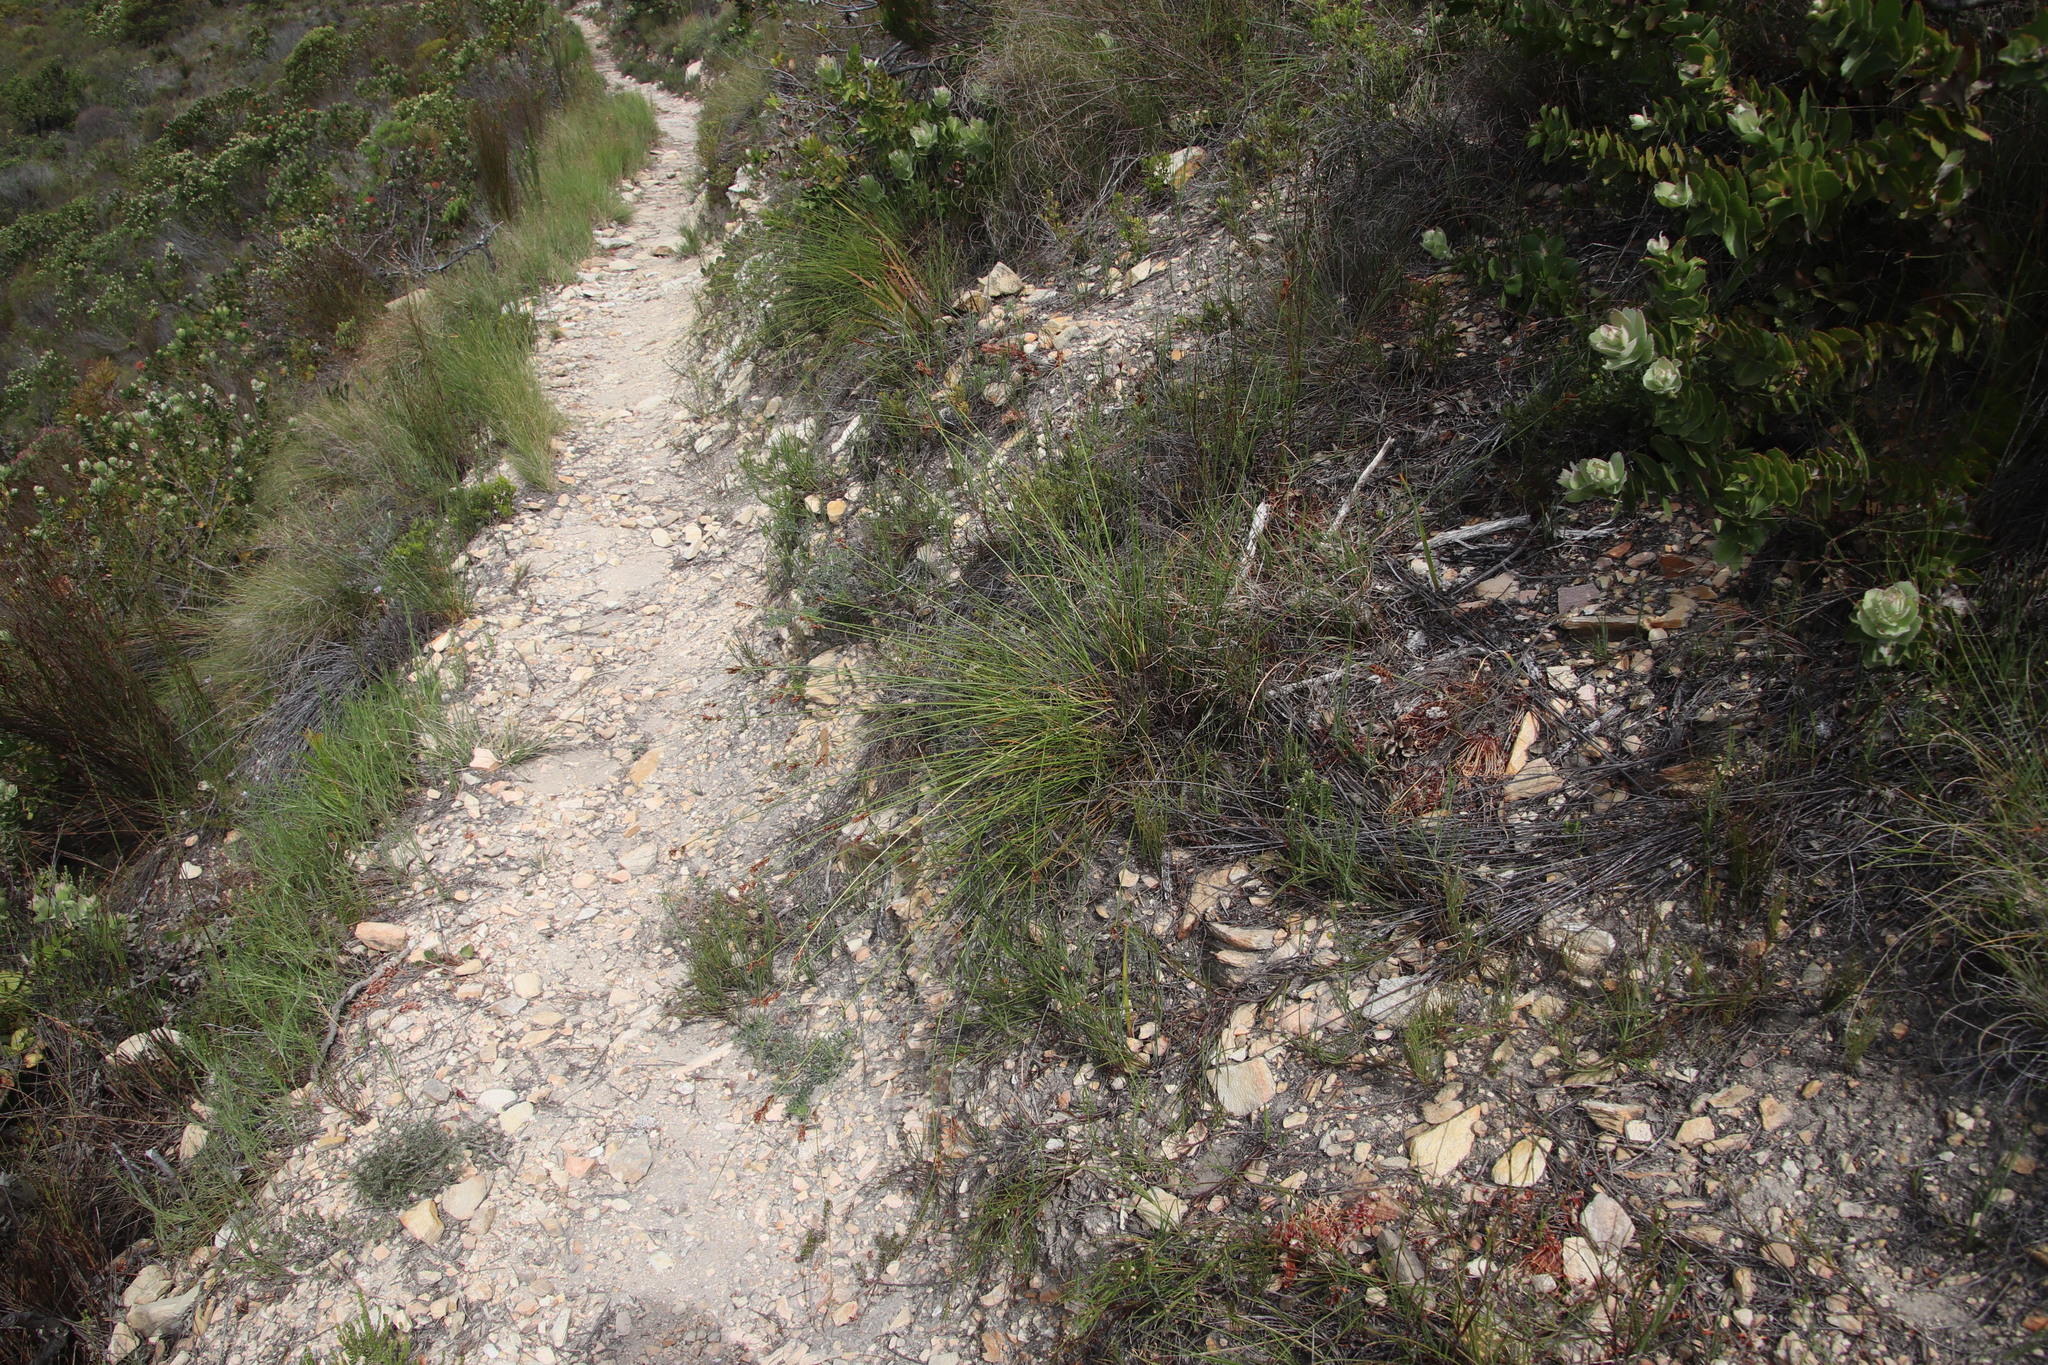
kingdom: Plantae
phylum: Tracheophyta
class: Liliopsida
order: Poales
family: Cyperaceae
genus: Schoenus
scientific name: Schoenus compar
